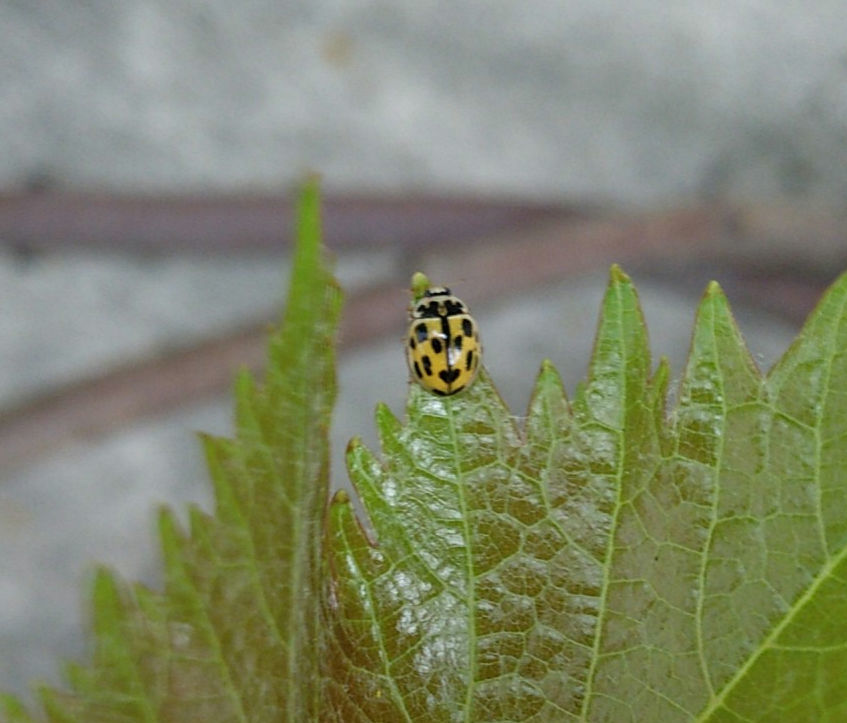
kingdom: Animalia
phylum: Arthropoda
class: Insecta
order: Coleoptera
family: Coccinellidae
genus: Propylaea
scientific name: Propylaea quatuordecimpunctata
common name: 14-spotted ladybird beetle
